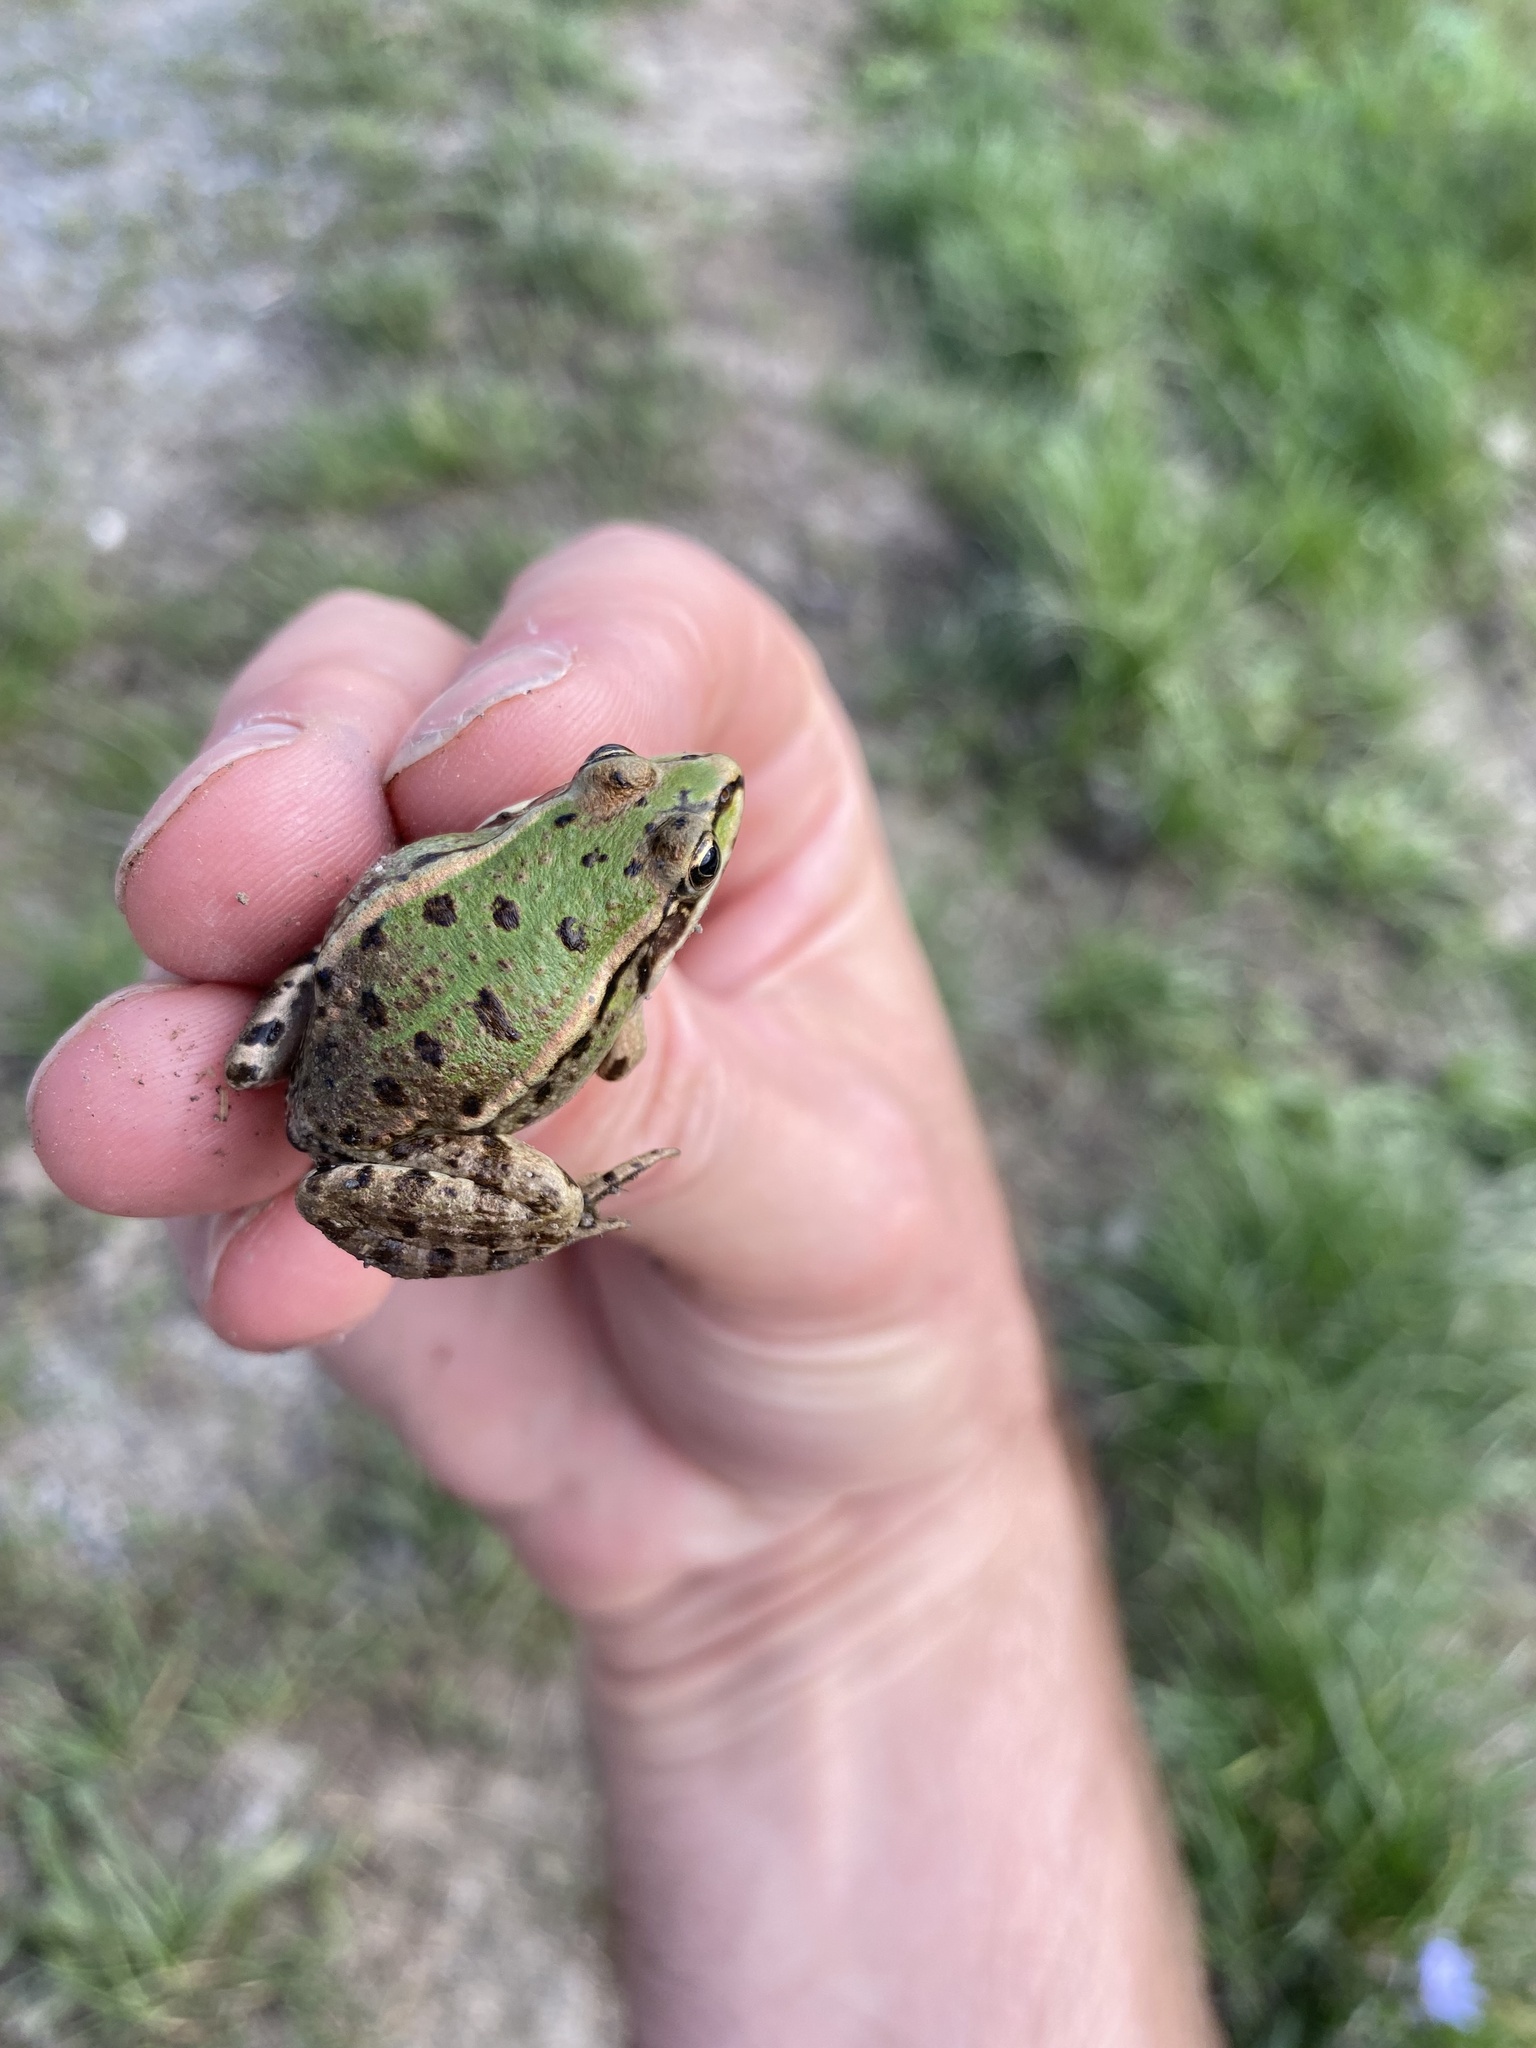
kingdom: Animalia
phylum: Chordata
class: Amphibia
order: Anura
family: Ranidae
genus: Pelophylax
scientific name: Pelophylax ridibundus
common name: Marsh frog
